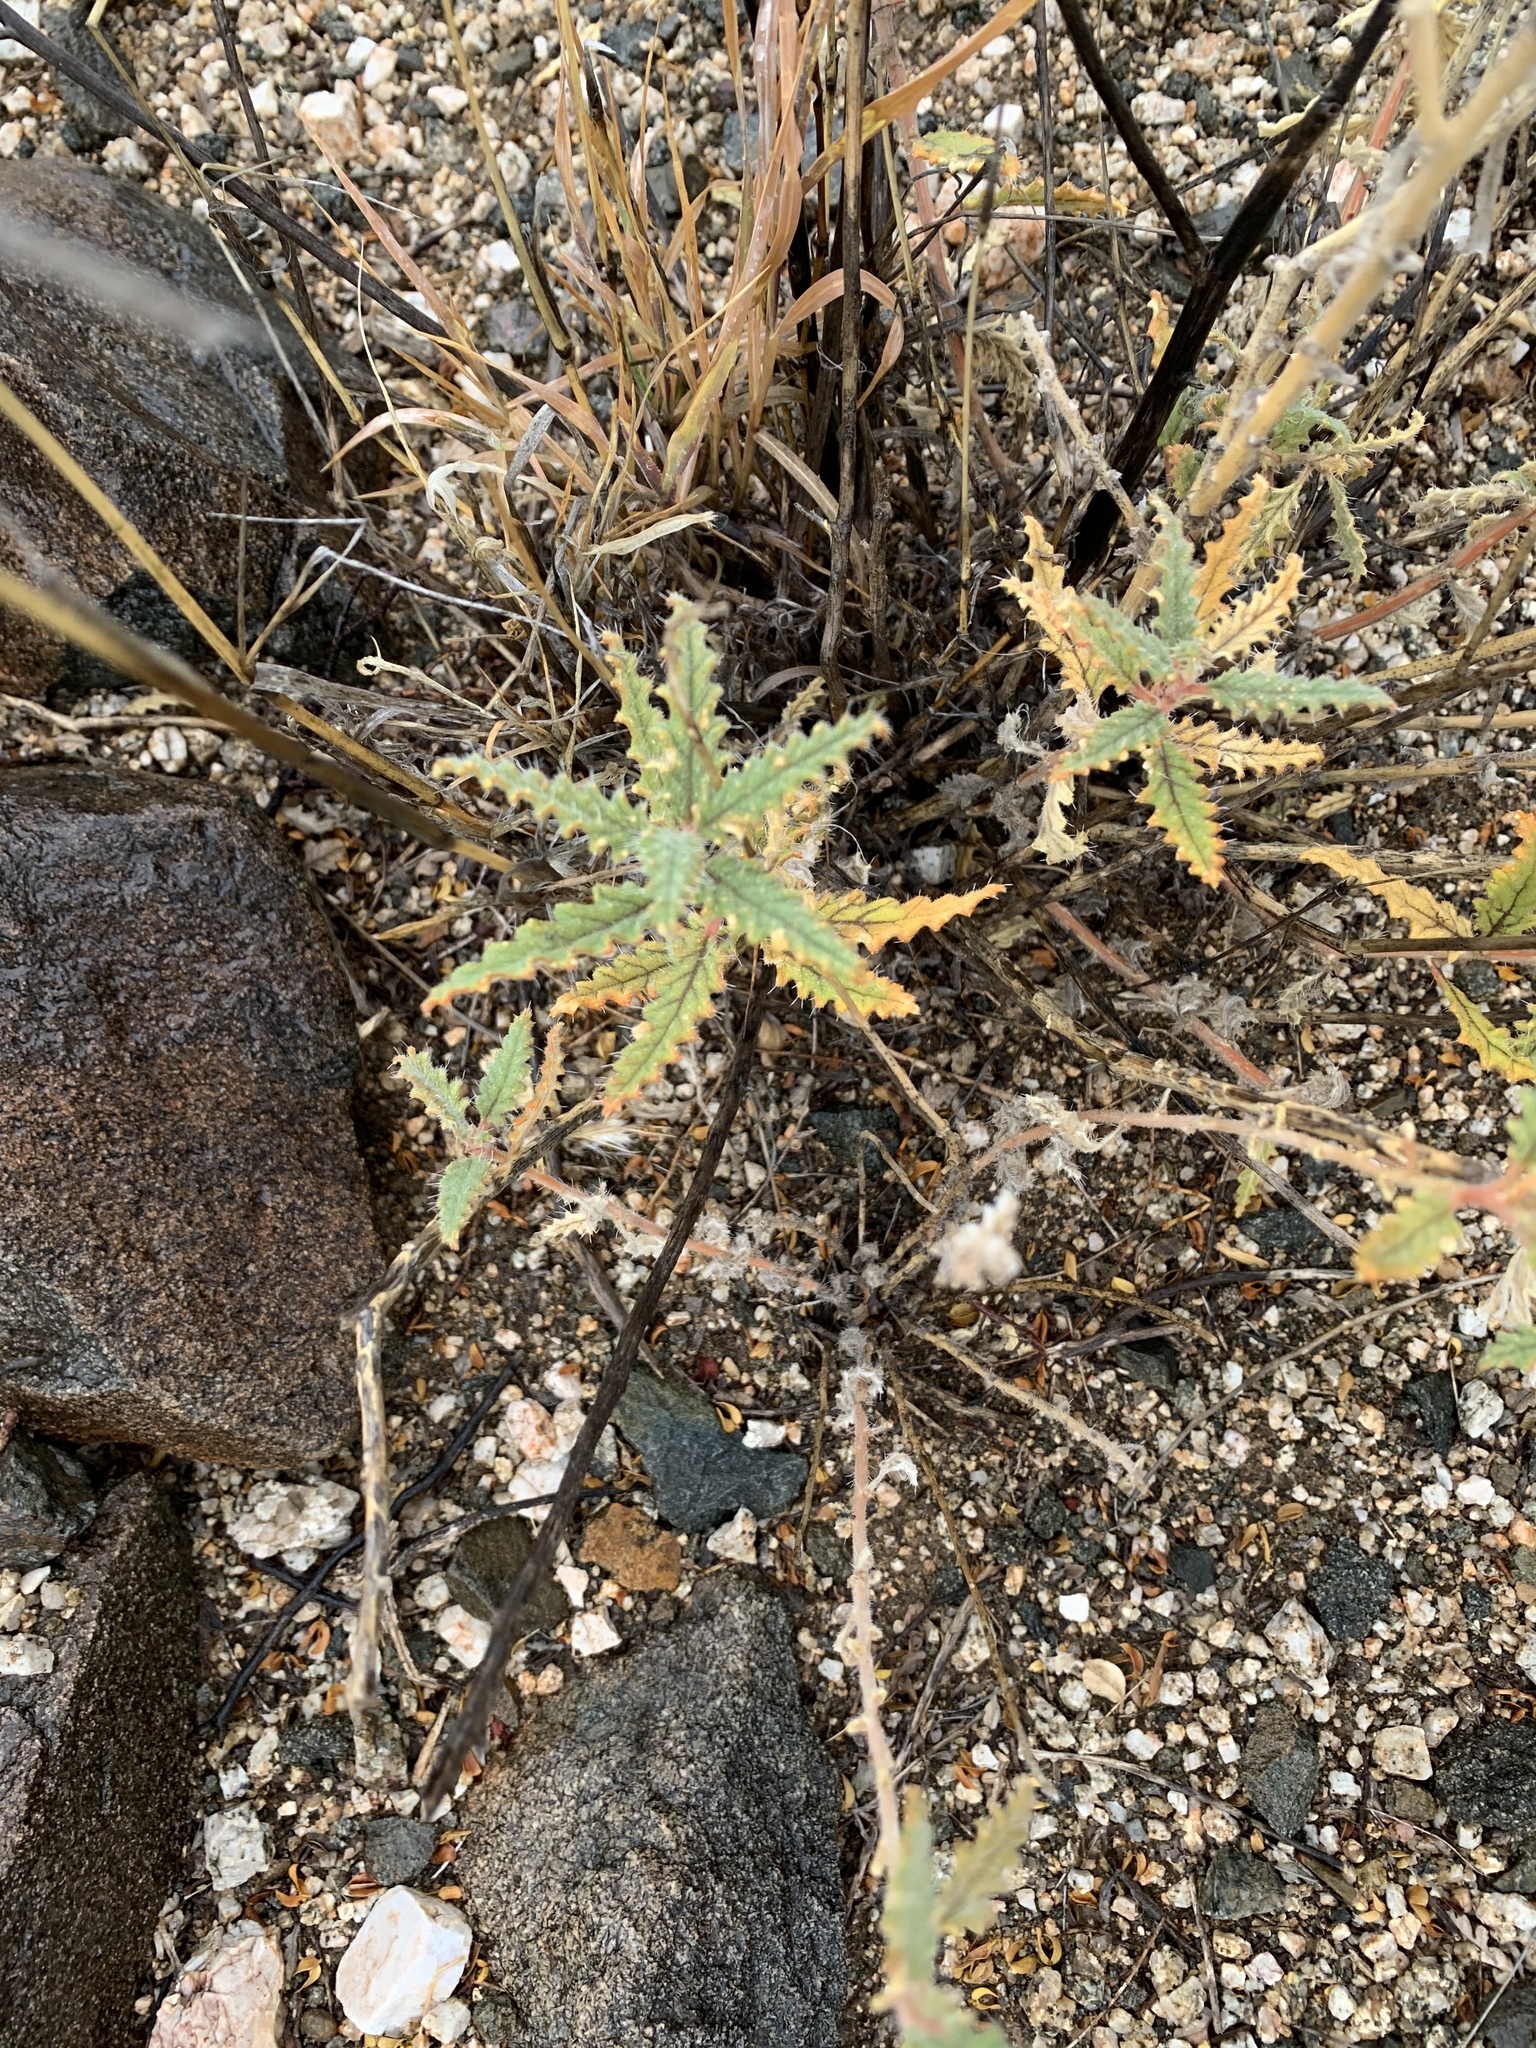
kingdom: Plantae
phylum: Tracheophyta
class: Magnoliopsida
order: Cornales
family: Loasaceae
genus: Cevallia
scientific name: Cevallia sinuata
